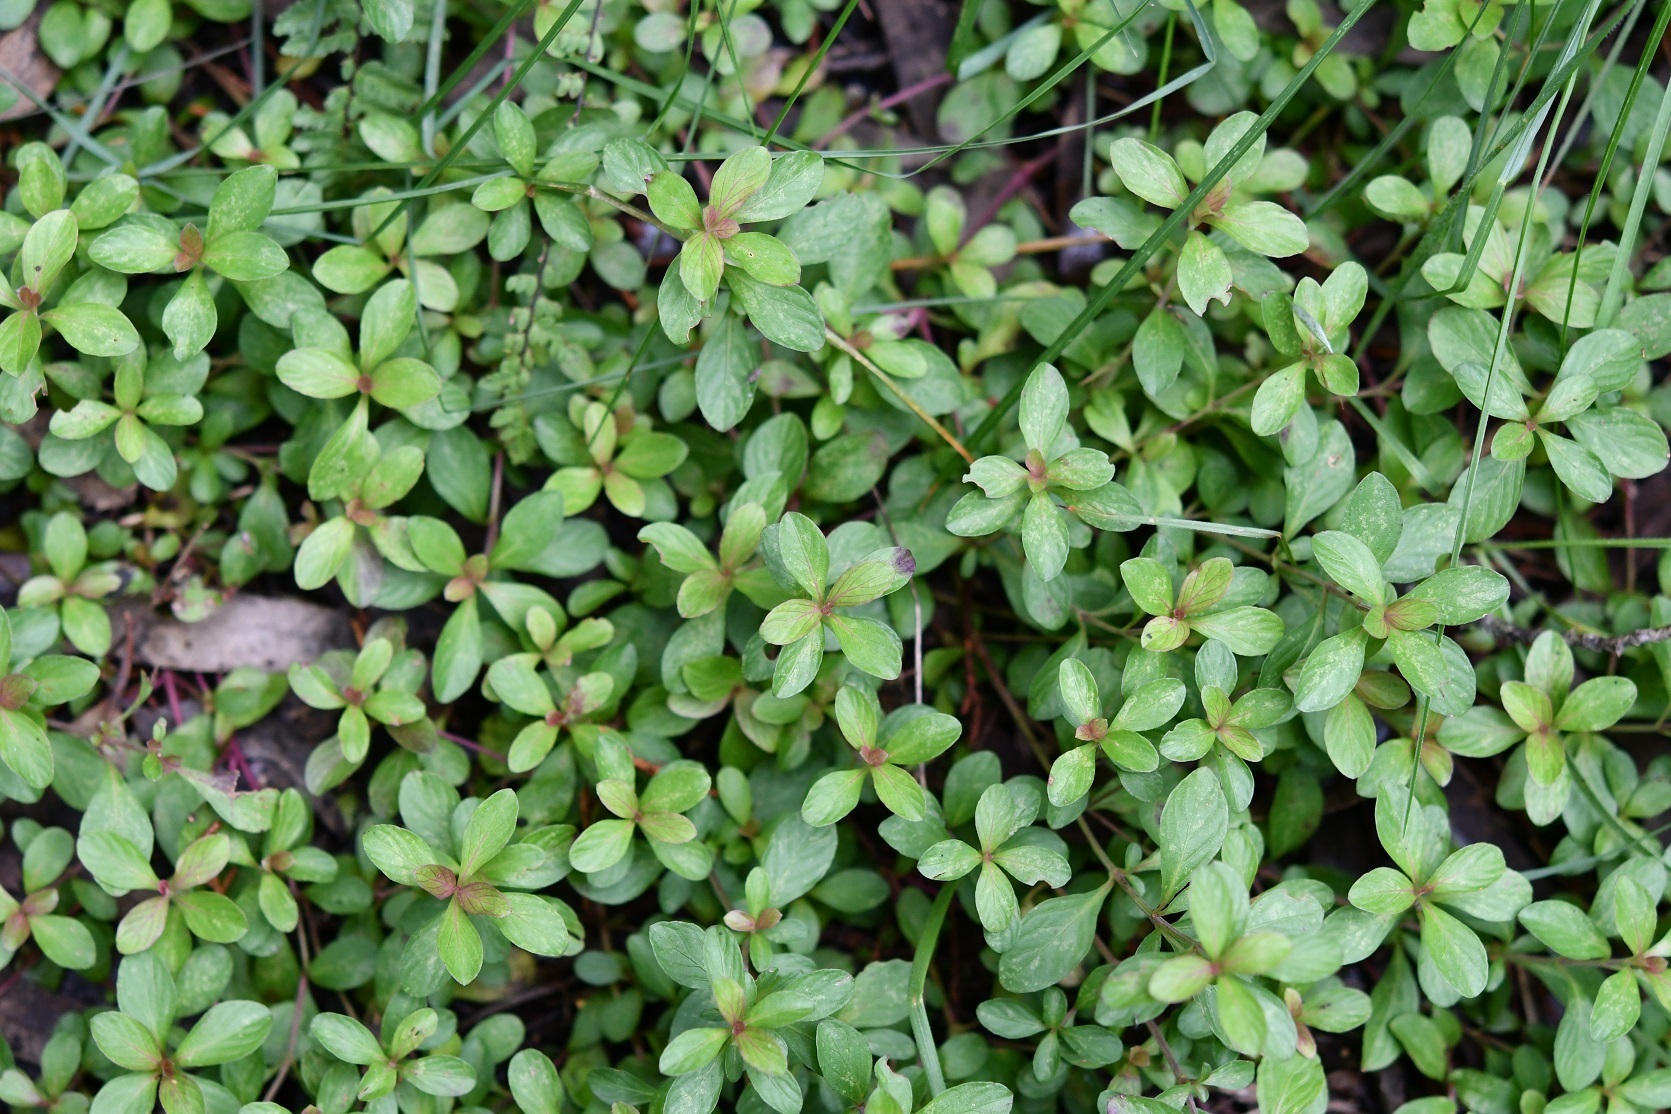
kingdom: Plantae
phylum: Tracheophyta
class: Magnoliopsida
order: Lamiales
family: Acanthaceae
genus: Dyschoriste
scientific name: Dyschoriste capitata
